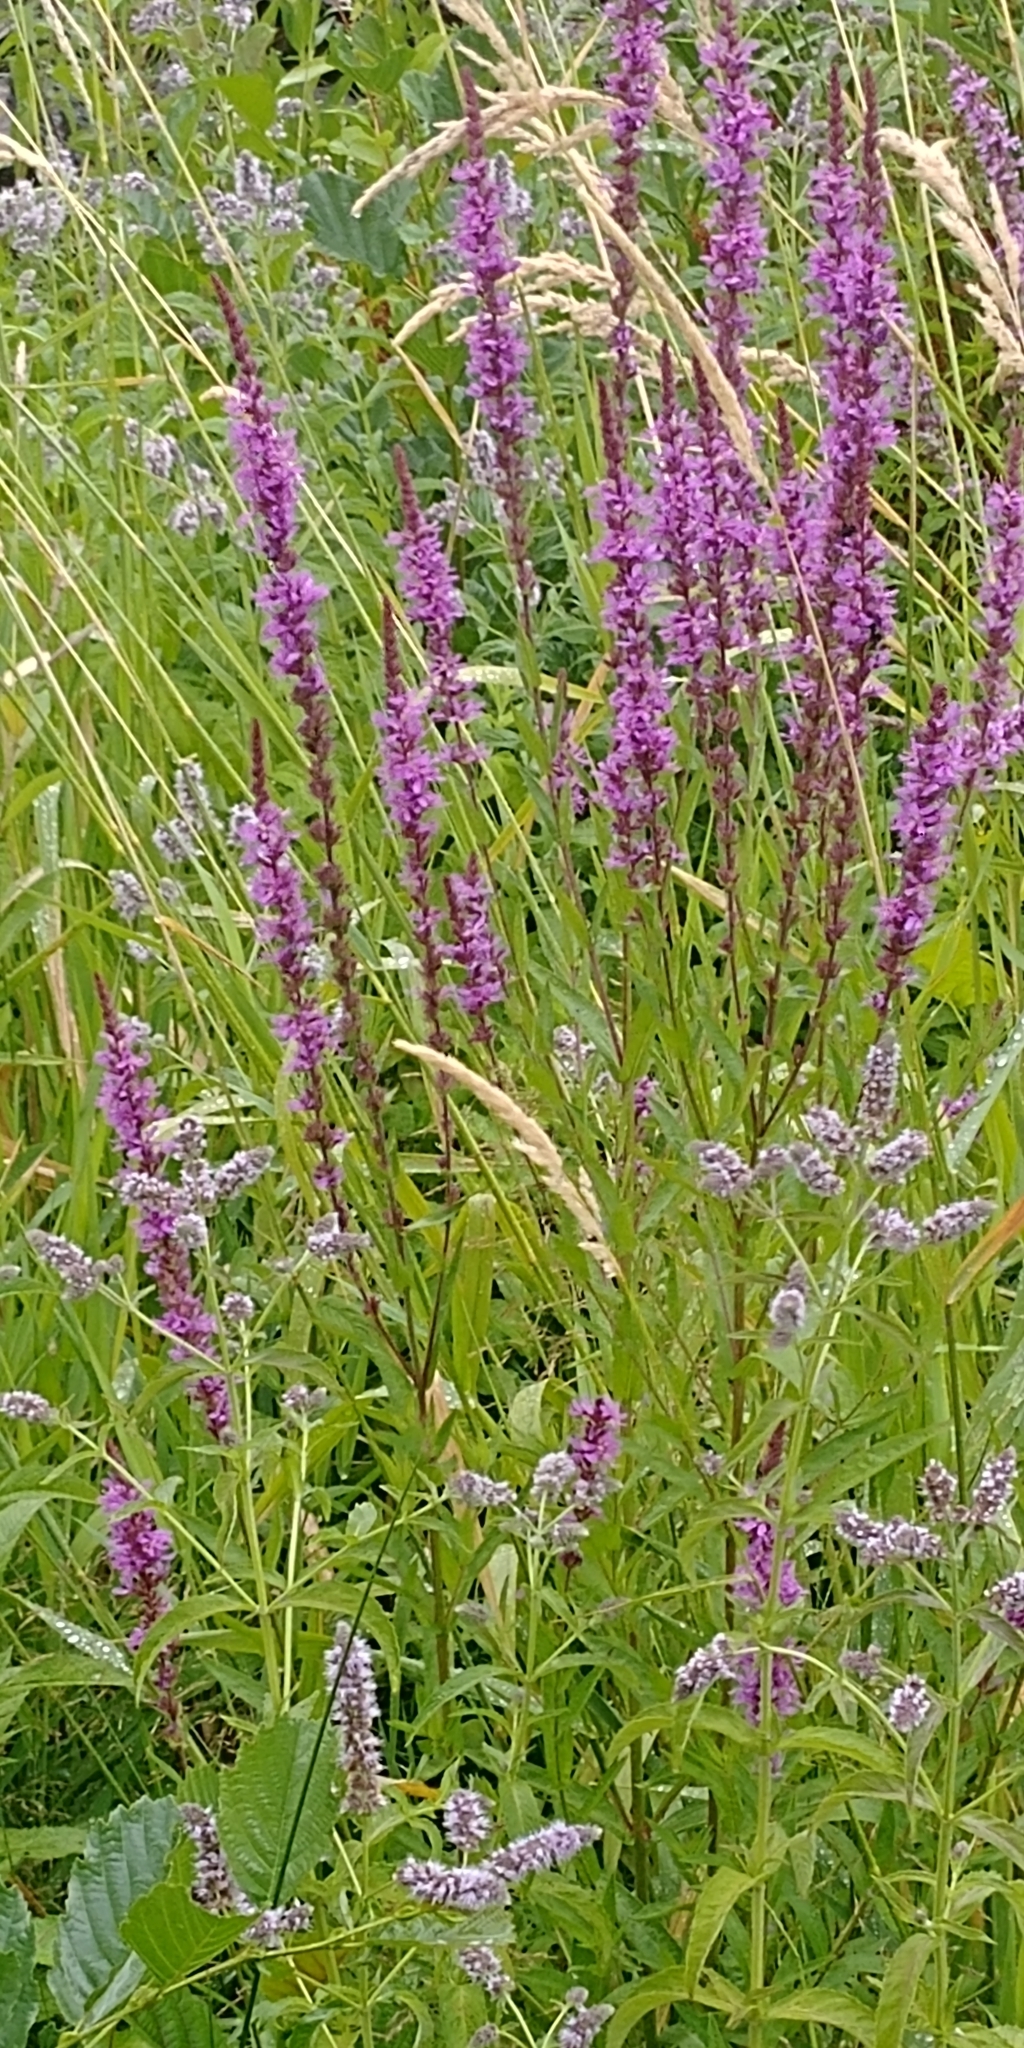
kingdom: Plantae
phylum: Tracheophyta
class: Magnoliopsida
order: Myrtales
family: Lythraceae
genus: Lythrum
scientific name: Lythrum salicaria
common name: Purple loosestrife
